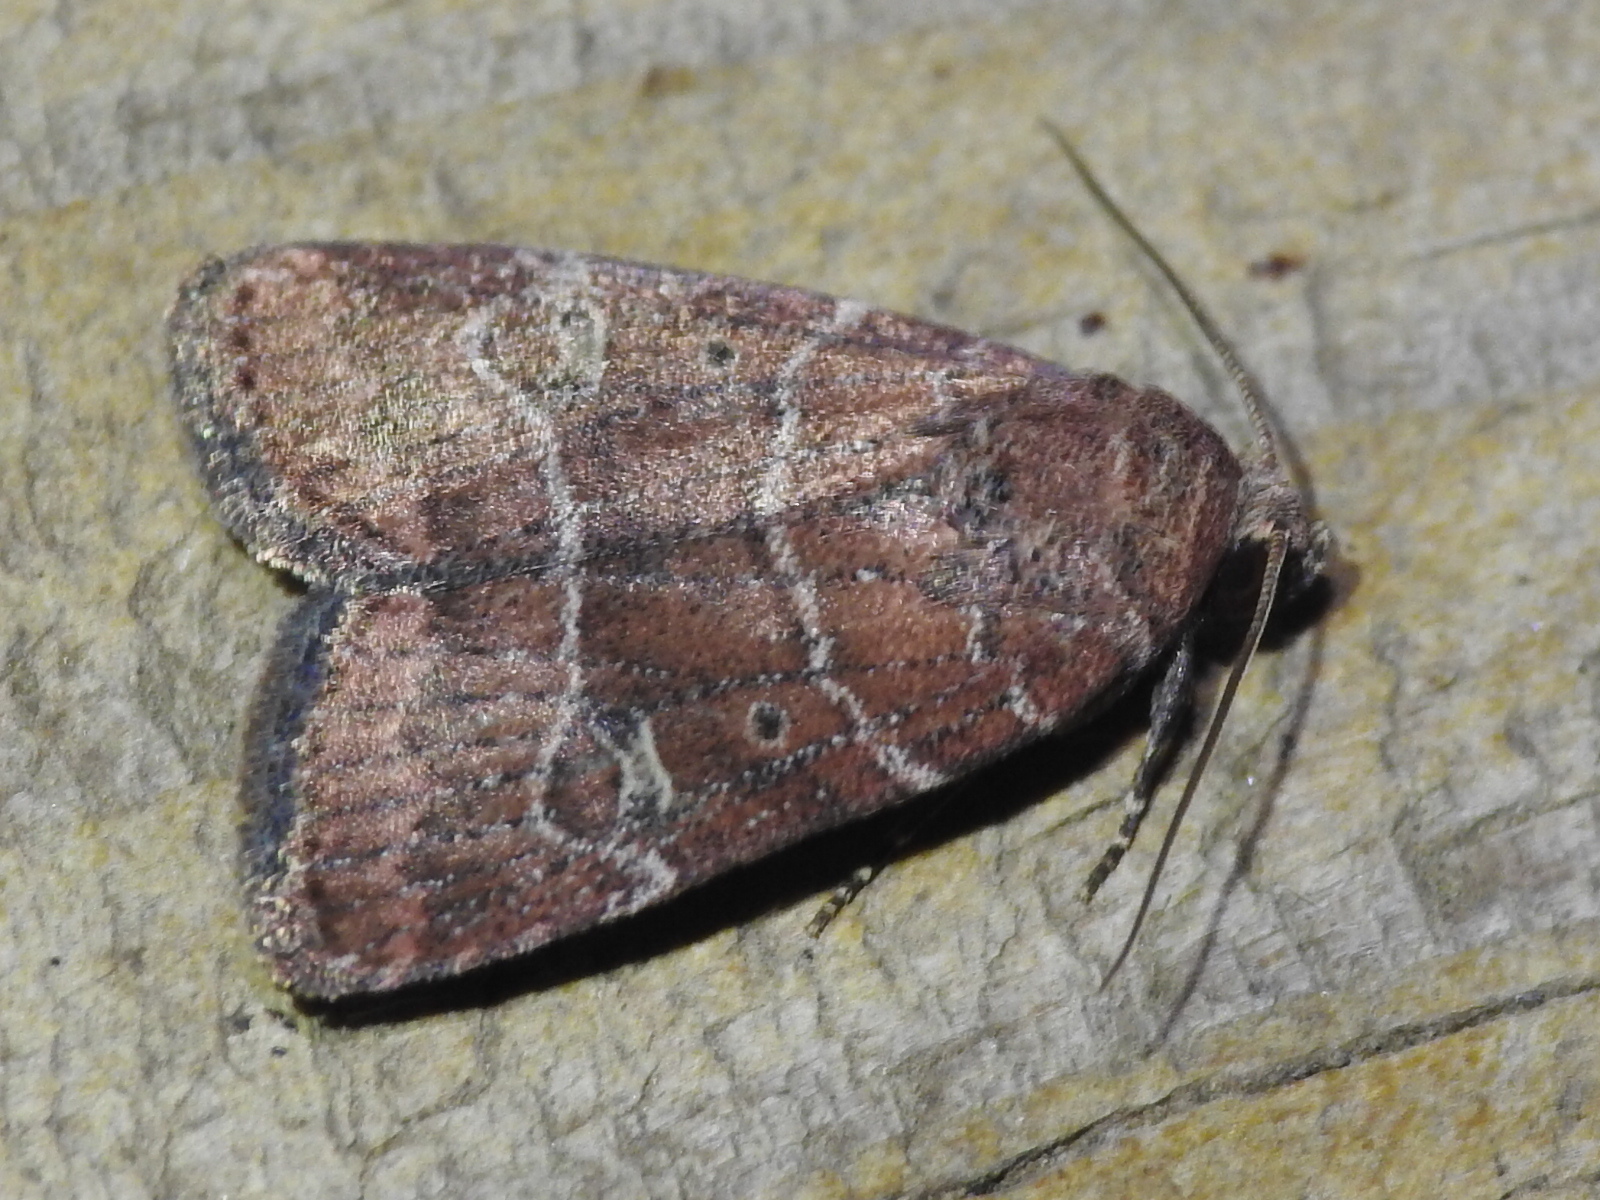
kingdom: Animalia
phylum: Arthropoda
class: Insecta
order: Lepidoptera
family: Noctuidae
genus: Elaphria
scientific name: Elaphria grata
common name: Grateful midget moth
